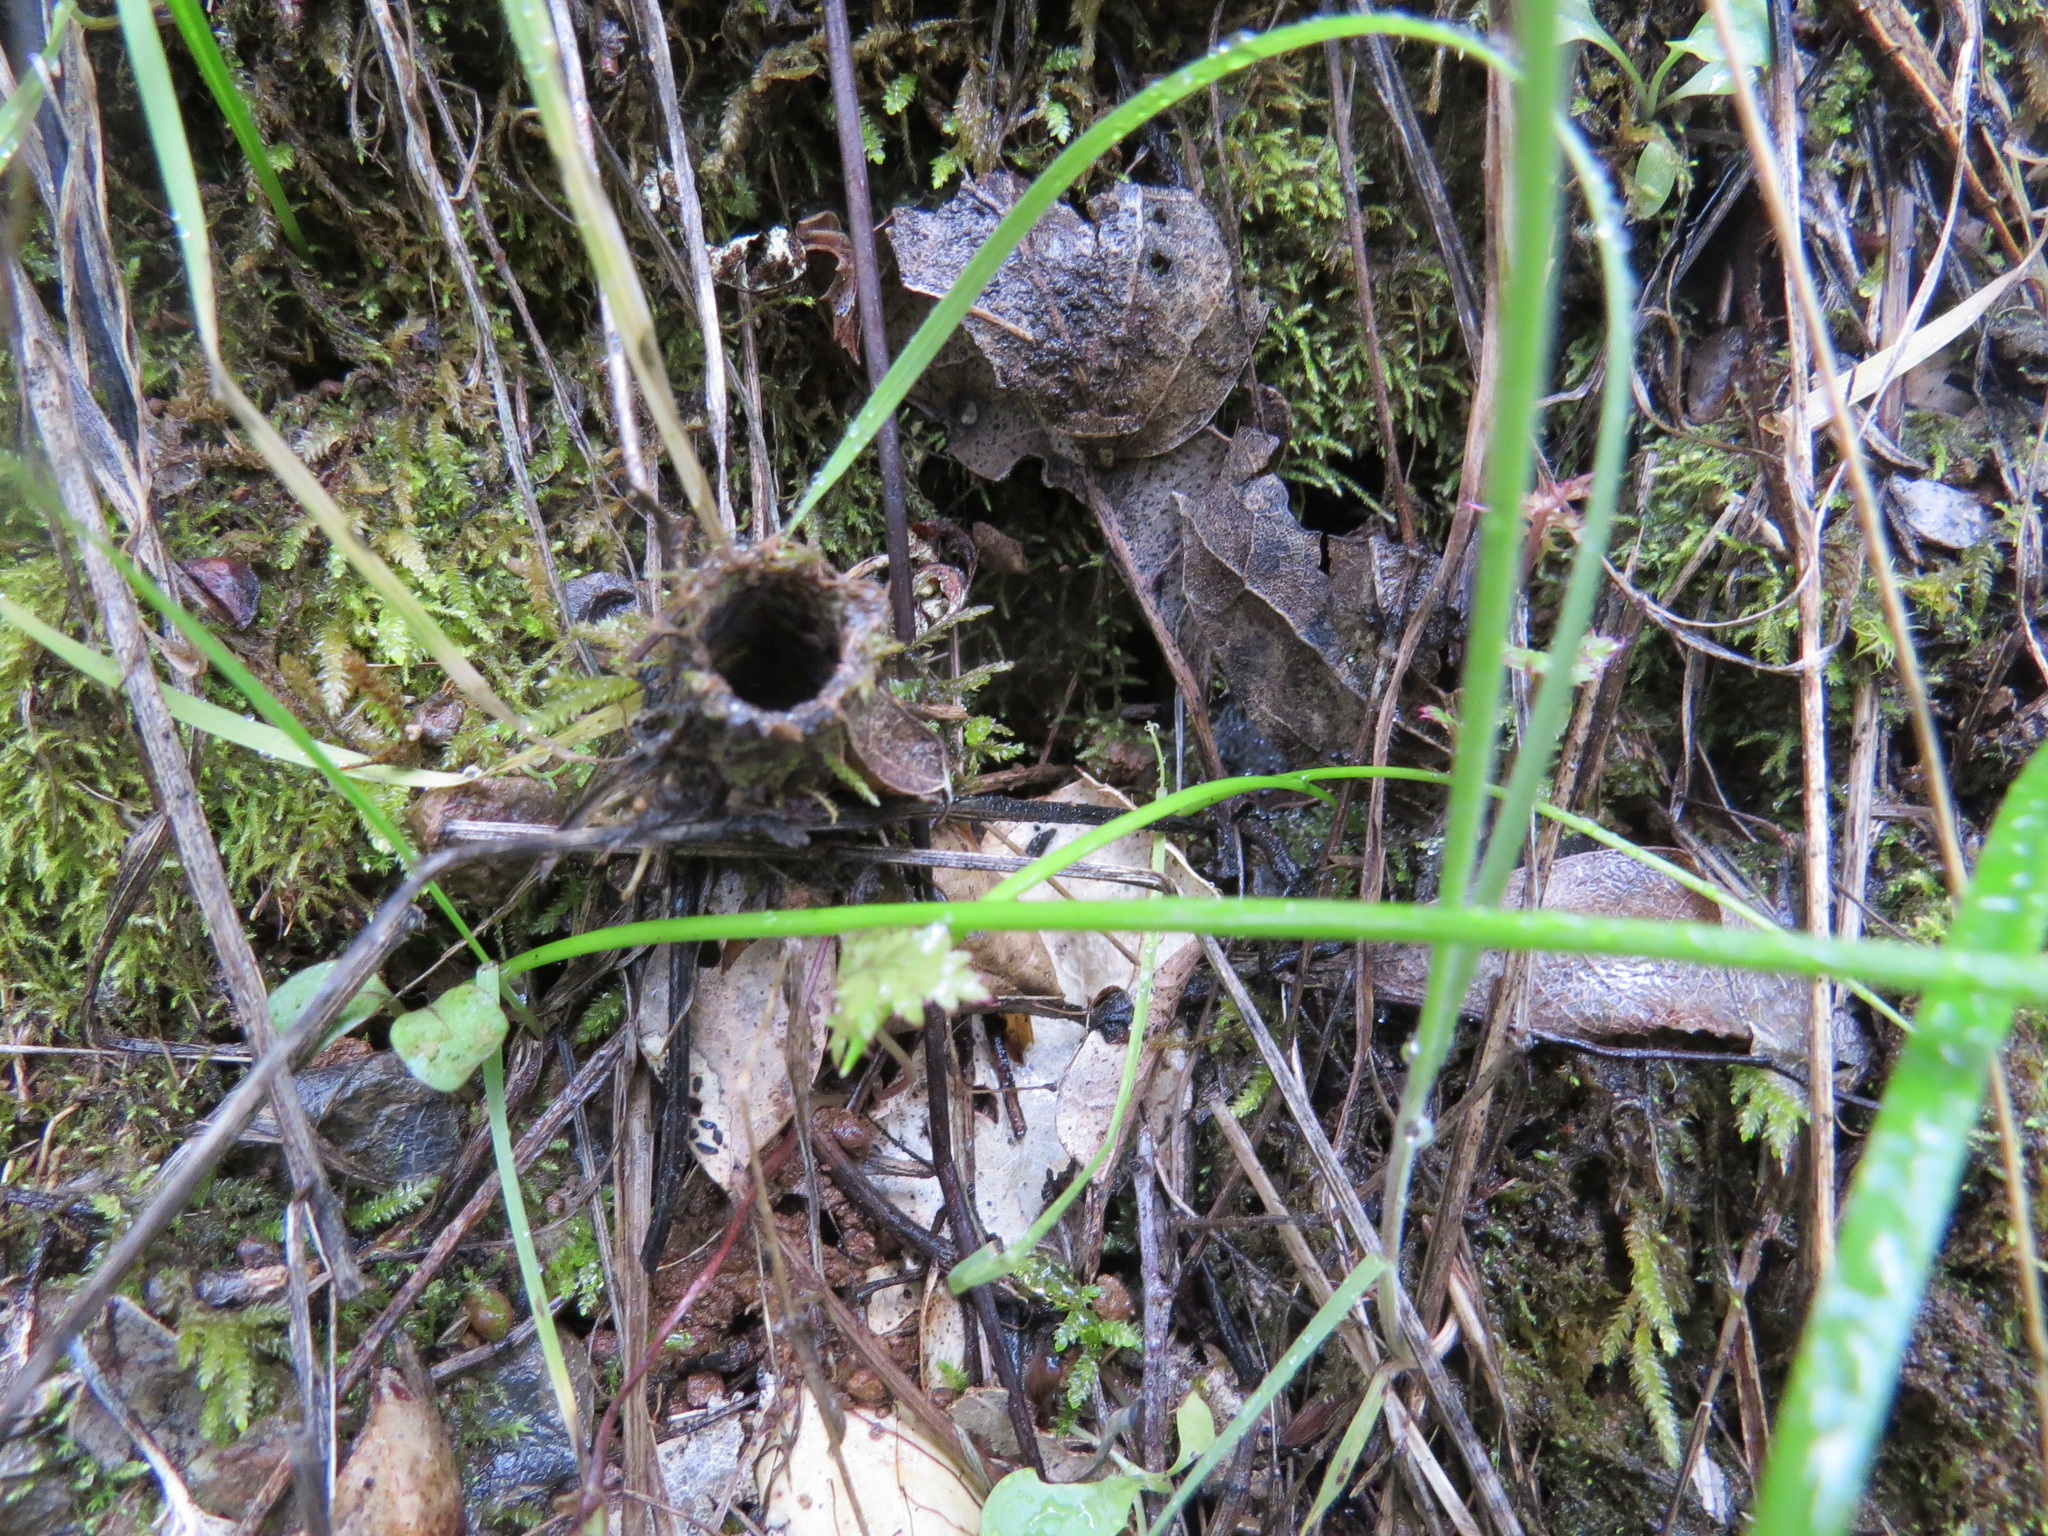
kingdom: Animalia
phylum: Arthropoda
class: Arachnida
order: Araneae
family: Antrodiaetidae
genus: Atypoides
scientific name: Atypoides riversi
